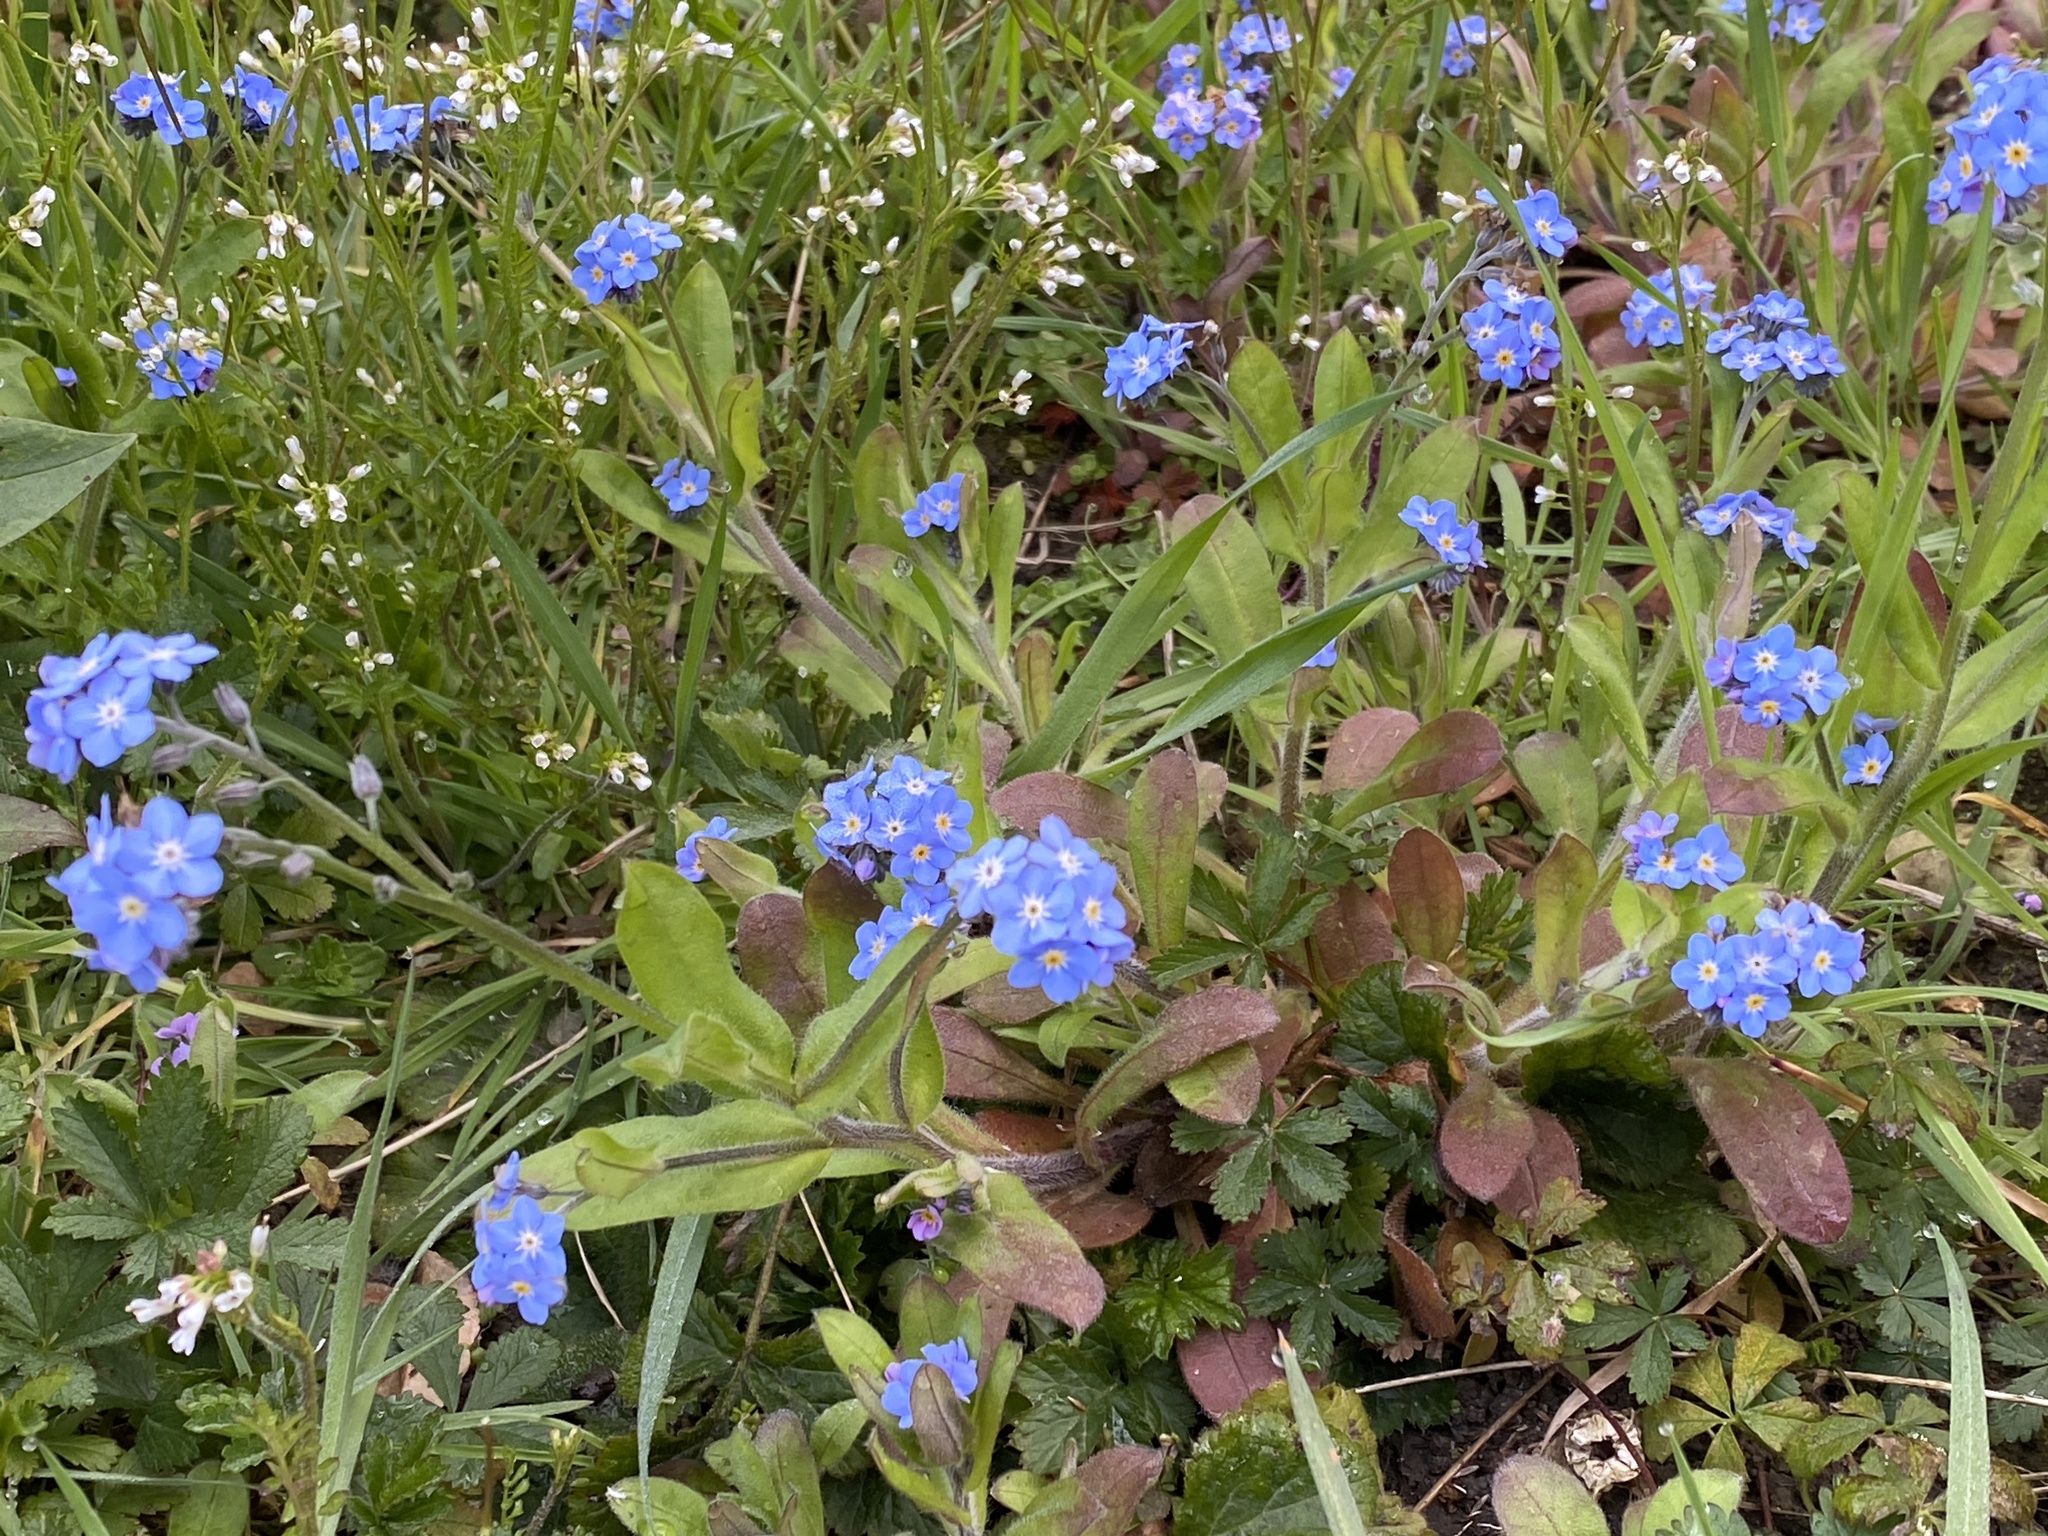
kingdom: Plantae
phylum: Tracheophyta
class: Magnoliopsida
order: Boraginales
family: Boraginaceae
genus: Myosotis
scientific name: Myosotis sylvatica
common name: Wood forget-me-not
